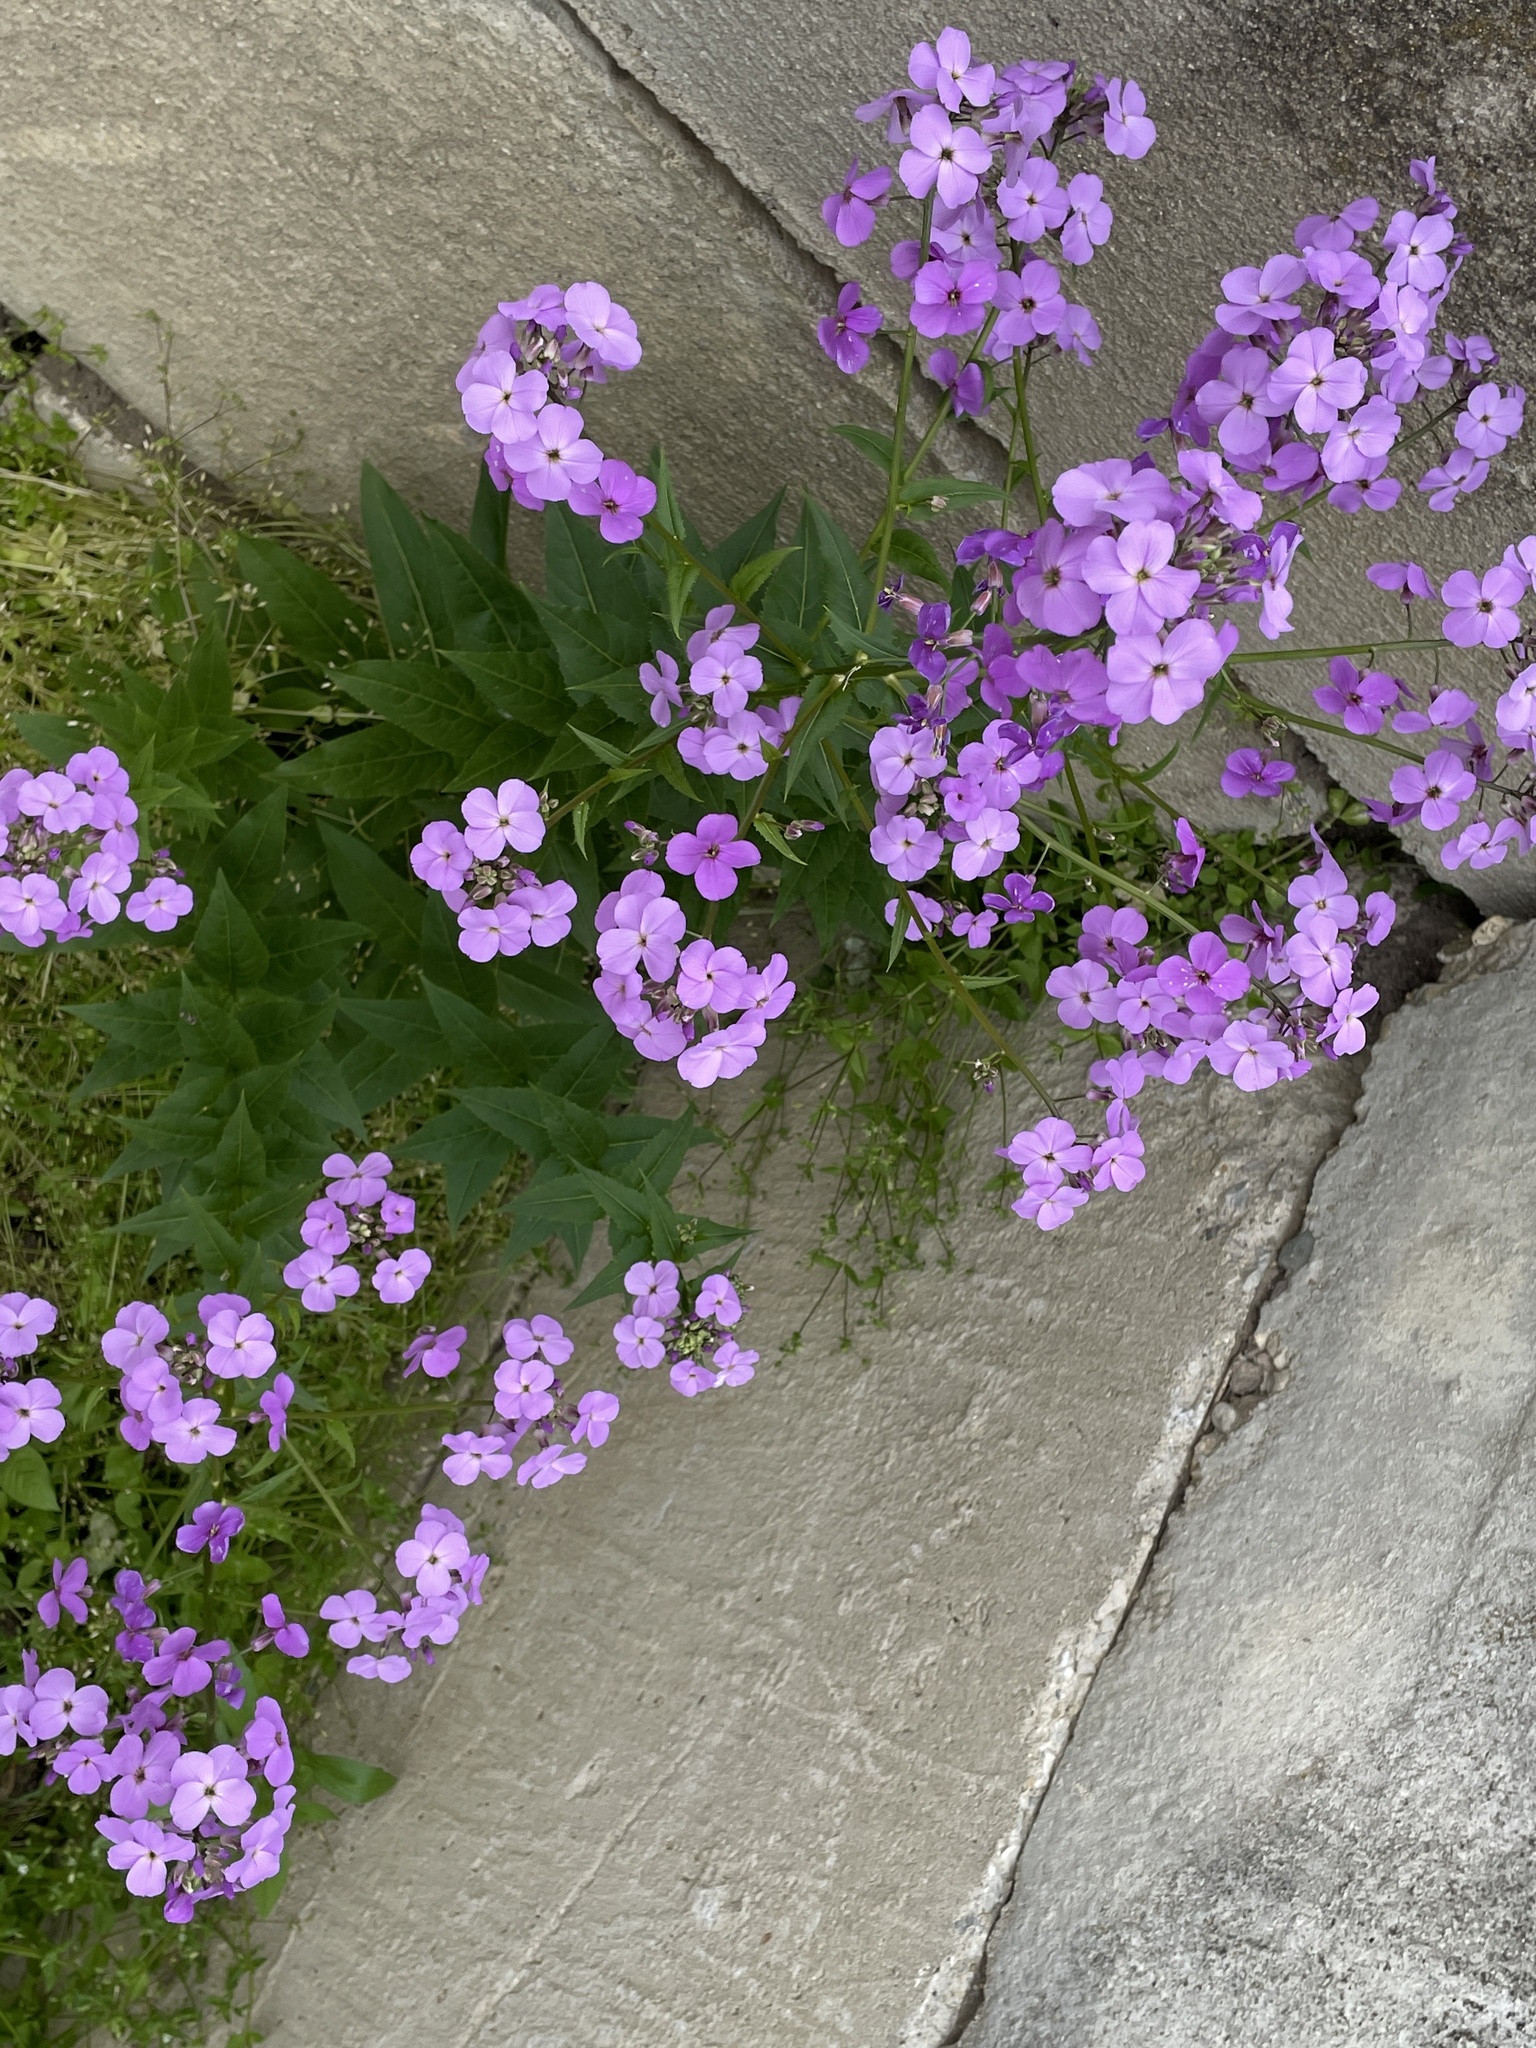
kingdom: Plantae
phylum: Tracheophyta
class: Magnoliopsida
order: Brassicales
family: Brassicaceae
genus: Hesperis
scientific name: Hesperis matronalis
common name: Dame's-violet
